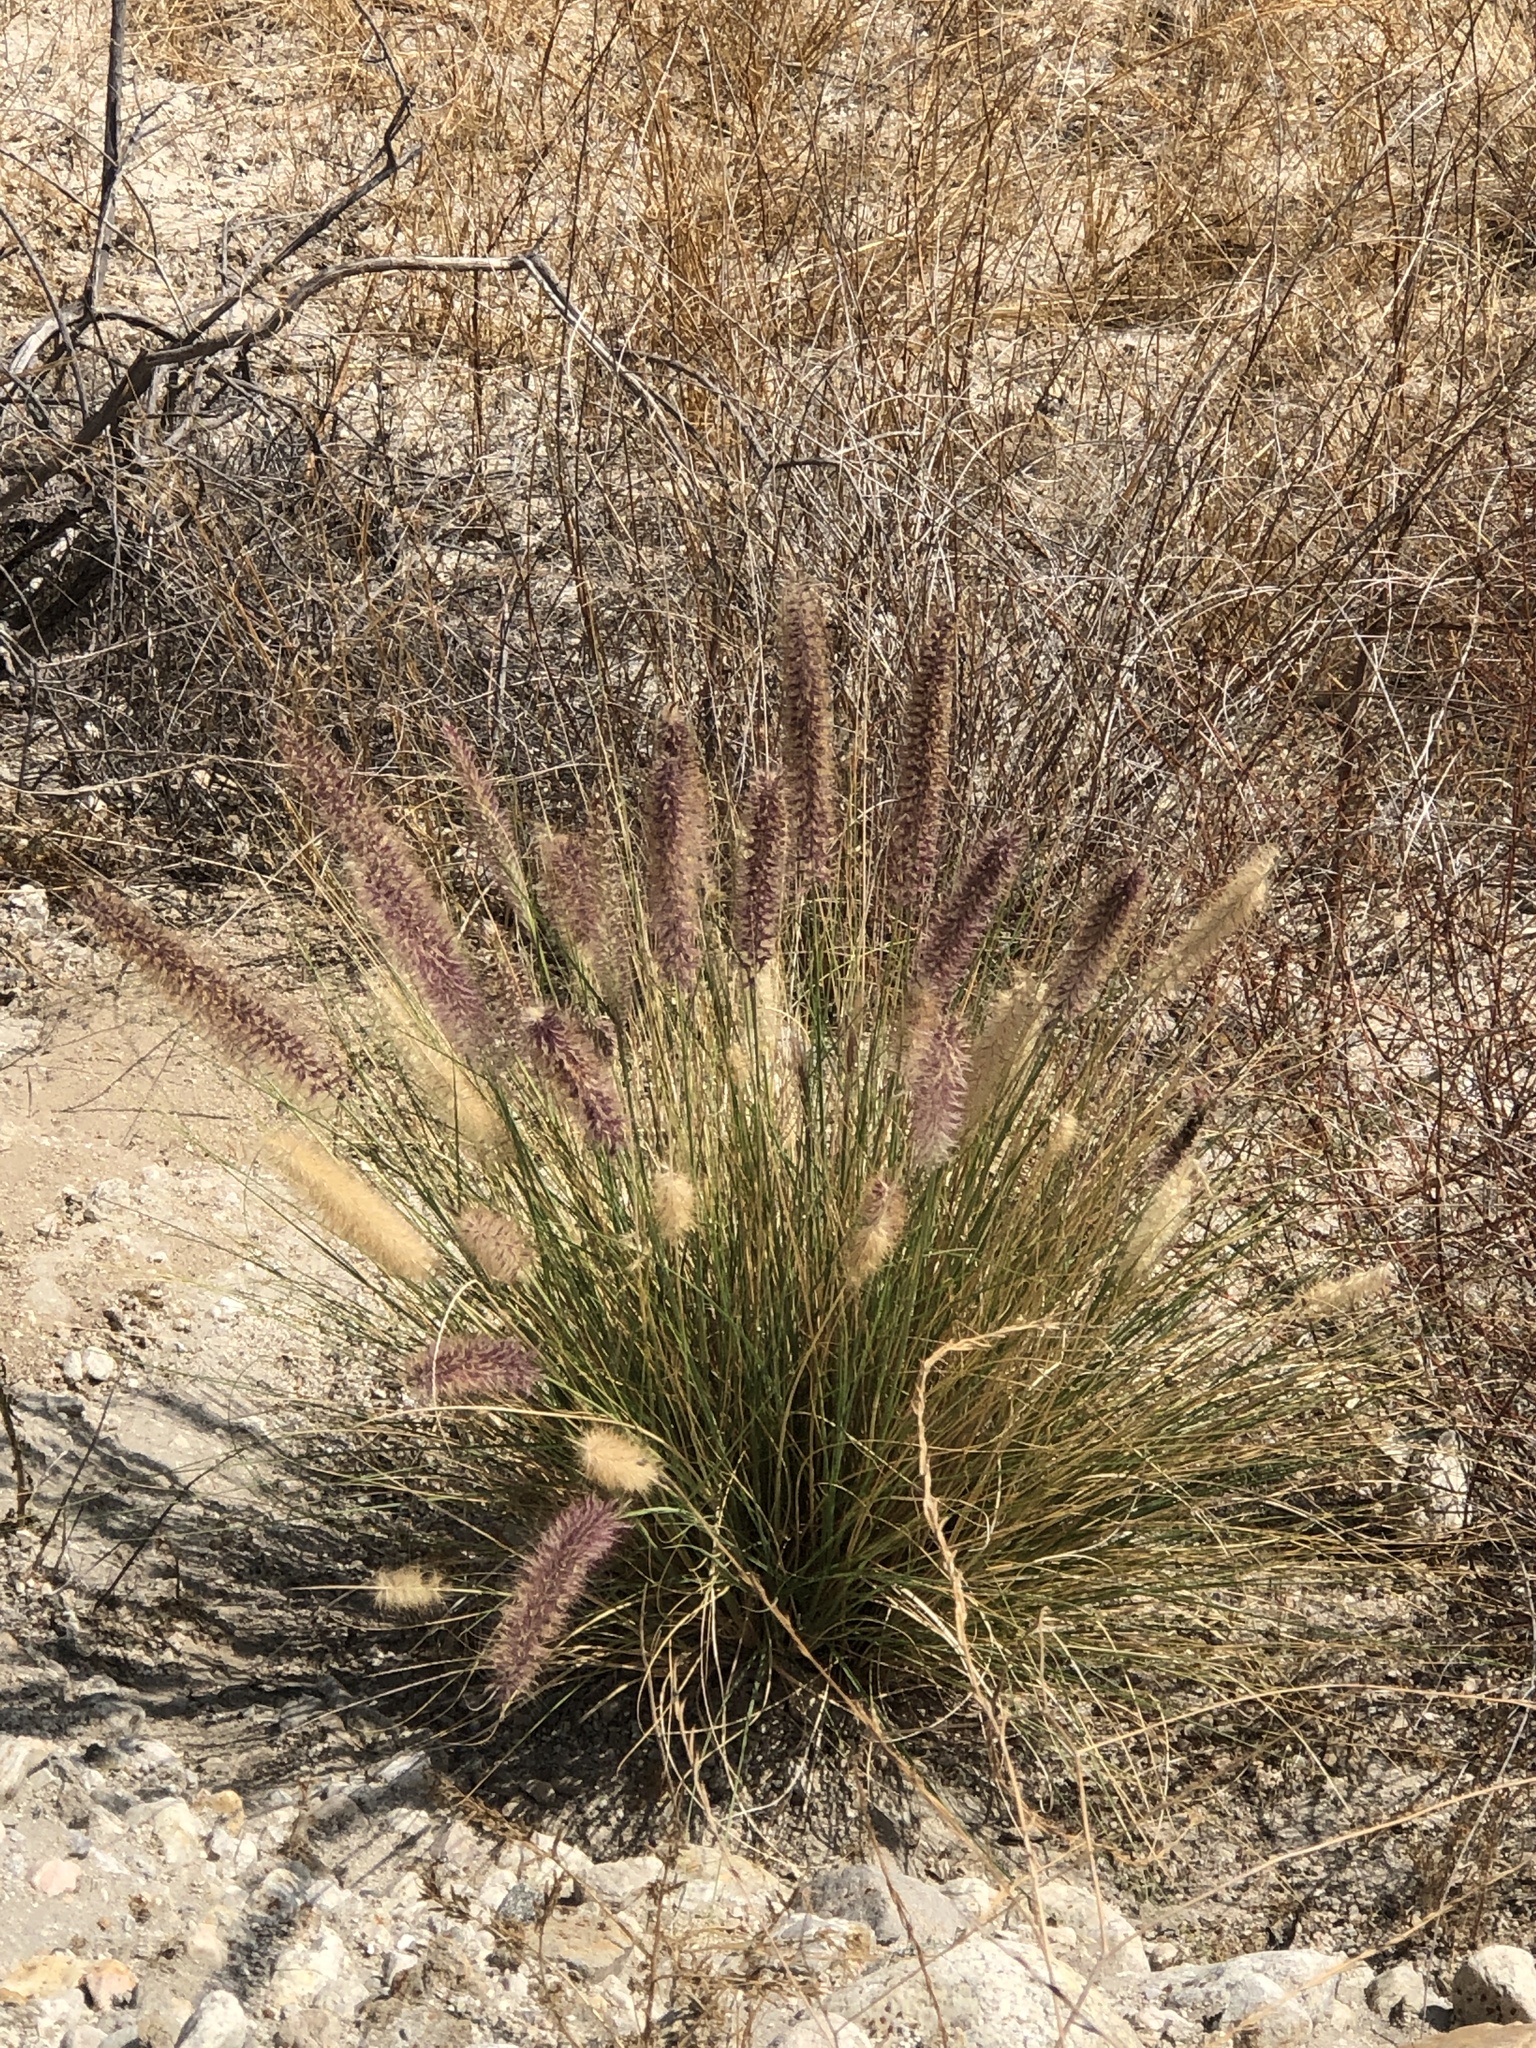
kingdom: Plantae
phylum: Tracheophyta
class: Liliopsida
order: Poales
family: Poaceae
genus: Cenchrus
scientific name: Cenchrus setaceus
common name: Crimson fountaingrass
